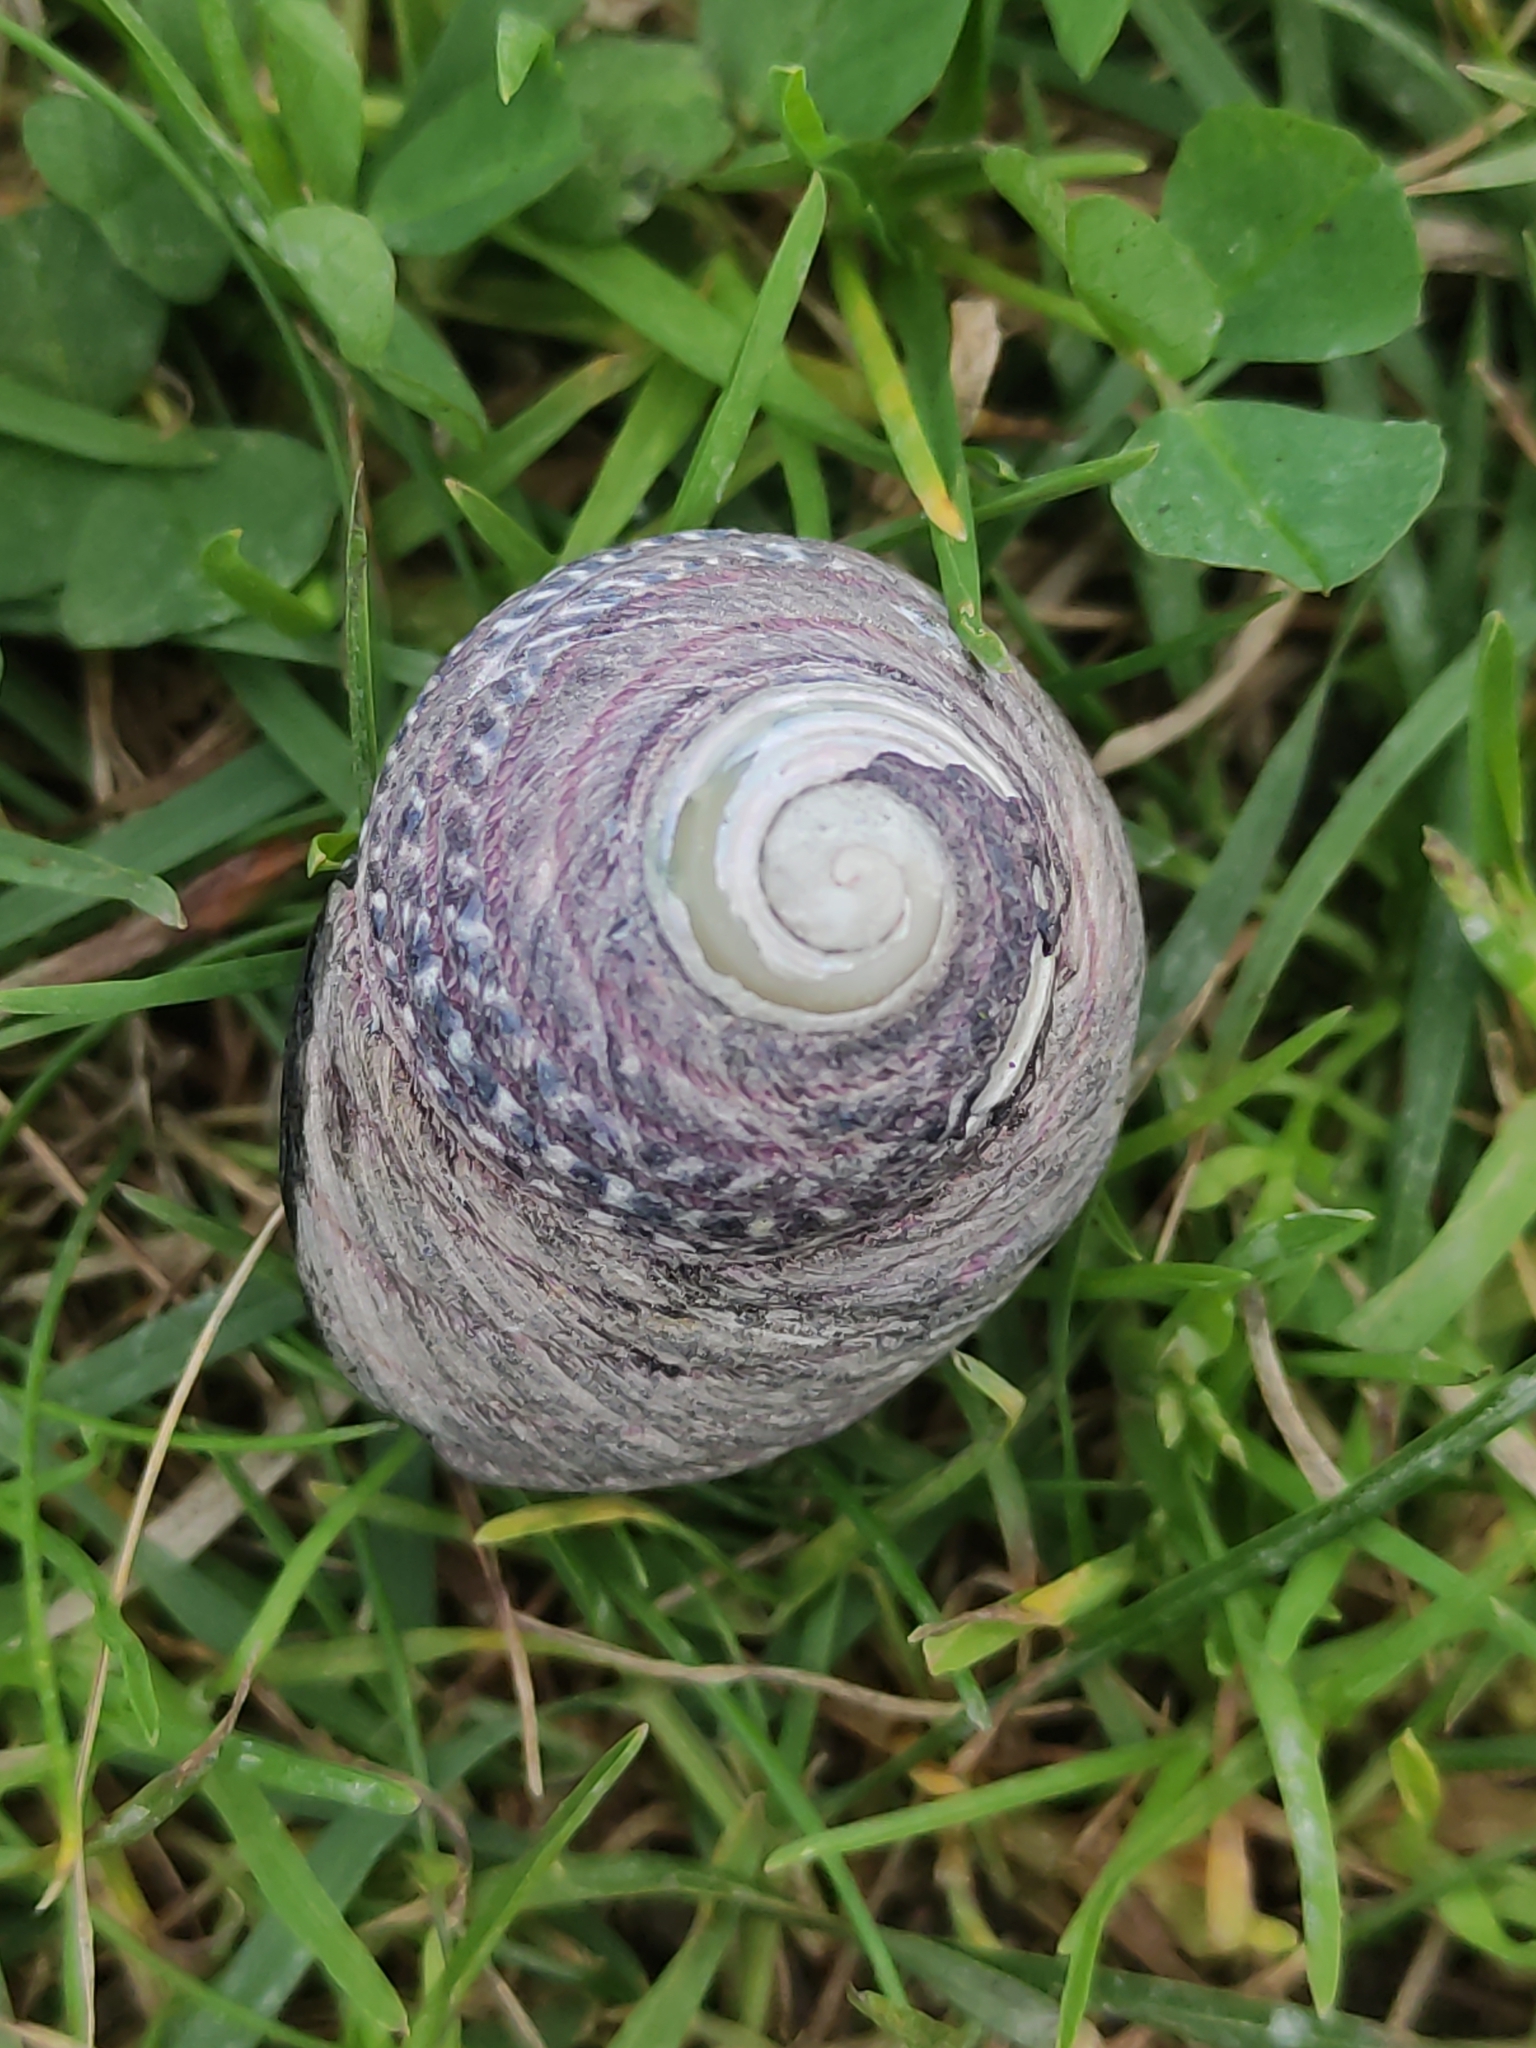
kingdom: Animalia
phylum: Mollusca
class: Gastropoda
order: Trochida
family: Trochidae
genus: Diloma
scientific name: Diloma aethiops
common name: Scorched monodont
